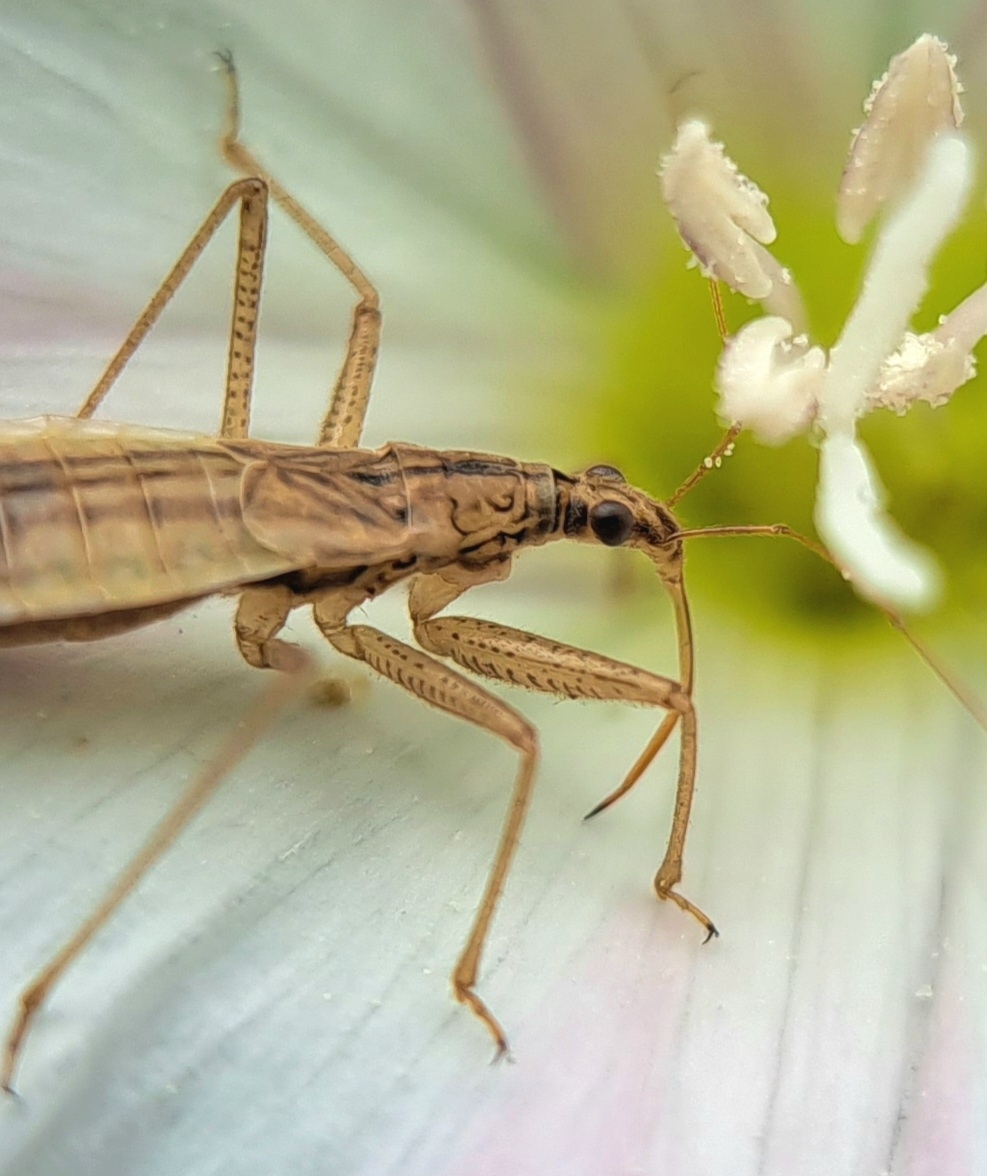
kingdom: Animalia
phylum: Arthropoda
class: Insecta
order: Hemiptera
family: Nabidae
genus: Nabis
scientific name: Nabis limbatus
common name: Marsh damselbug
